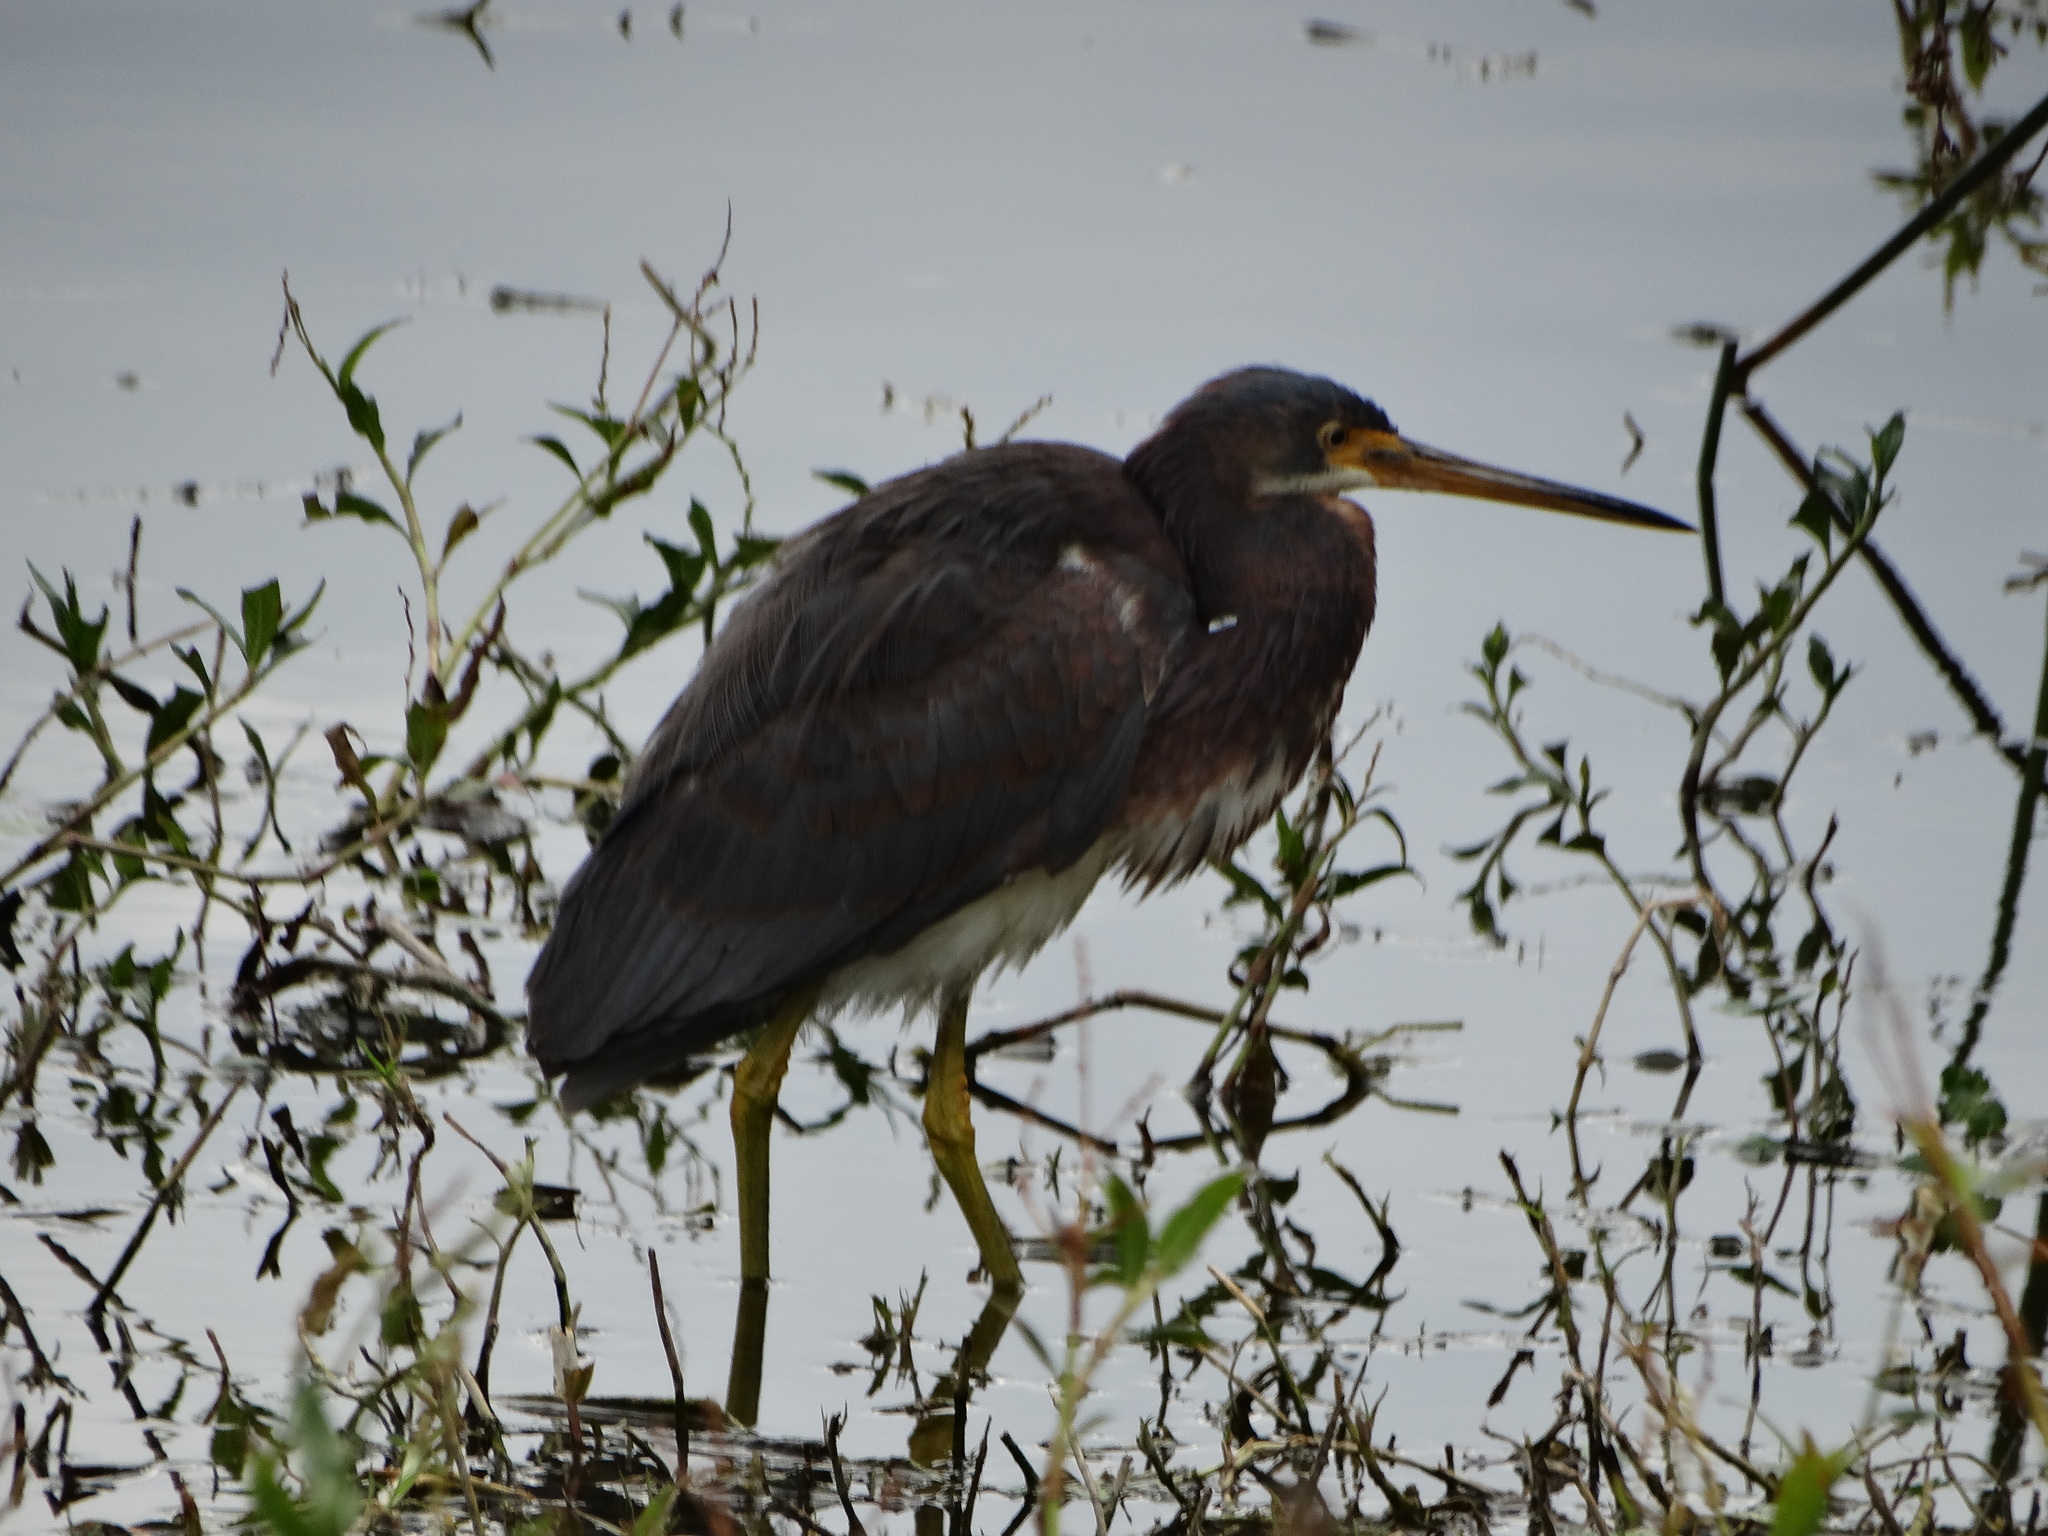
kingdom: Animalia
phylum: Chordata
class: Aves
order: Pelecaniformes
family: Ardeidae
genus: Egretta
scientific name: Egretta tricolor
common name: Tricolored heron
